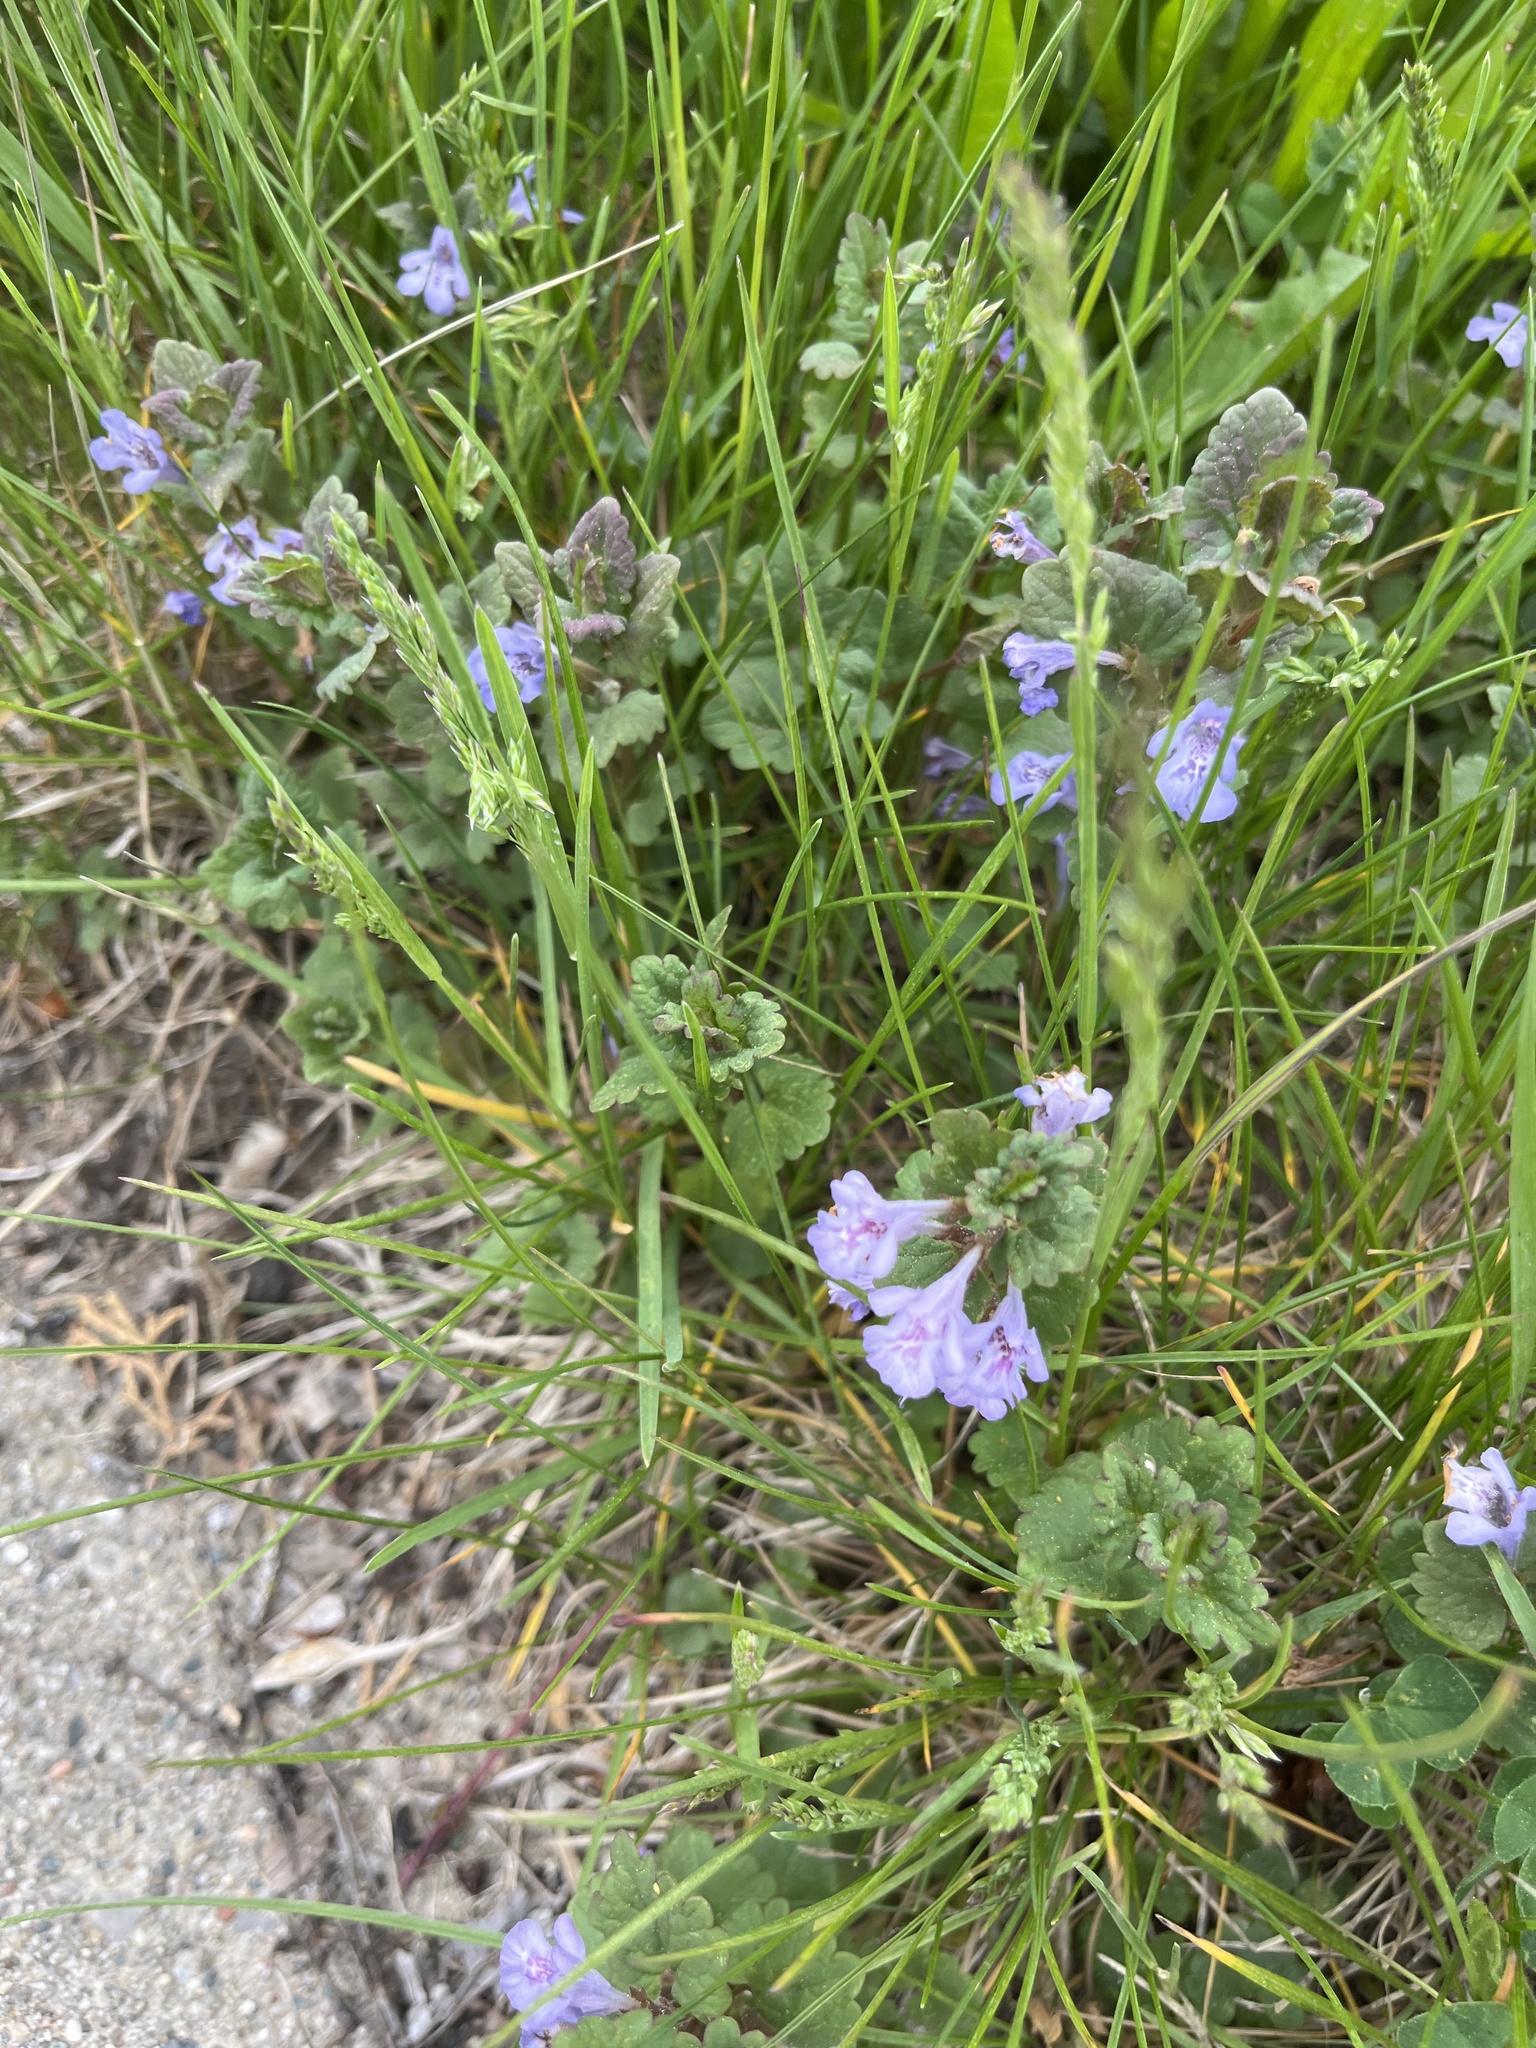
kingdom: Plantae
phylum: Tracheophyta
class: Magnoliopsida
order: Lamiales
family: Lamiaceae
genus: Glechoma
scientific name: Glechoma hederacea
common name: Ground ivy
